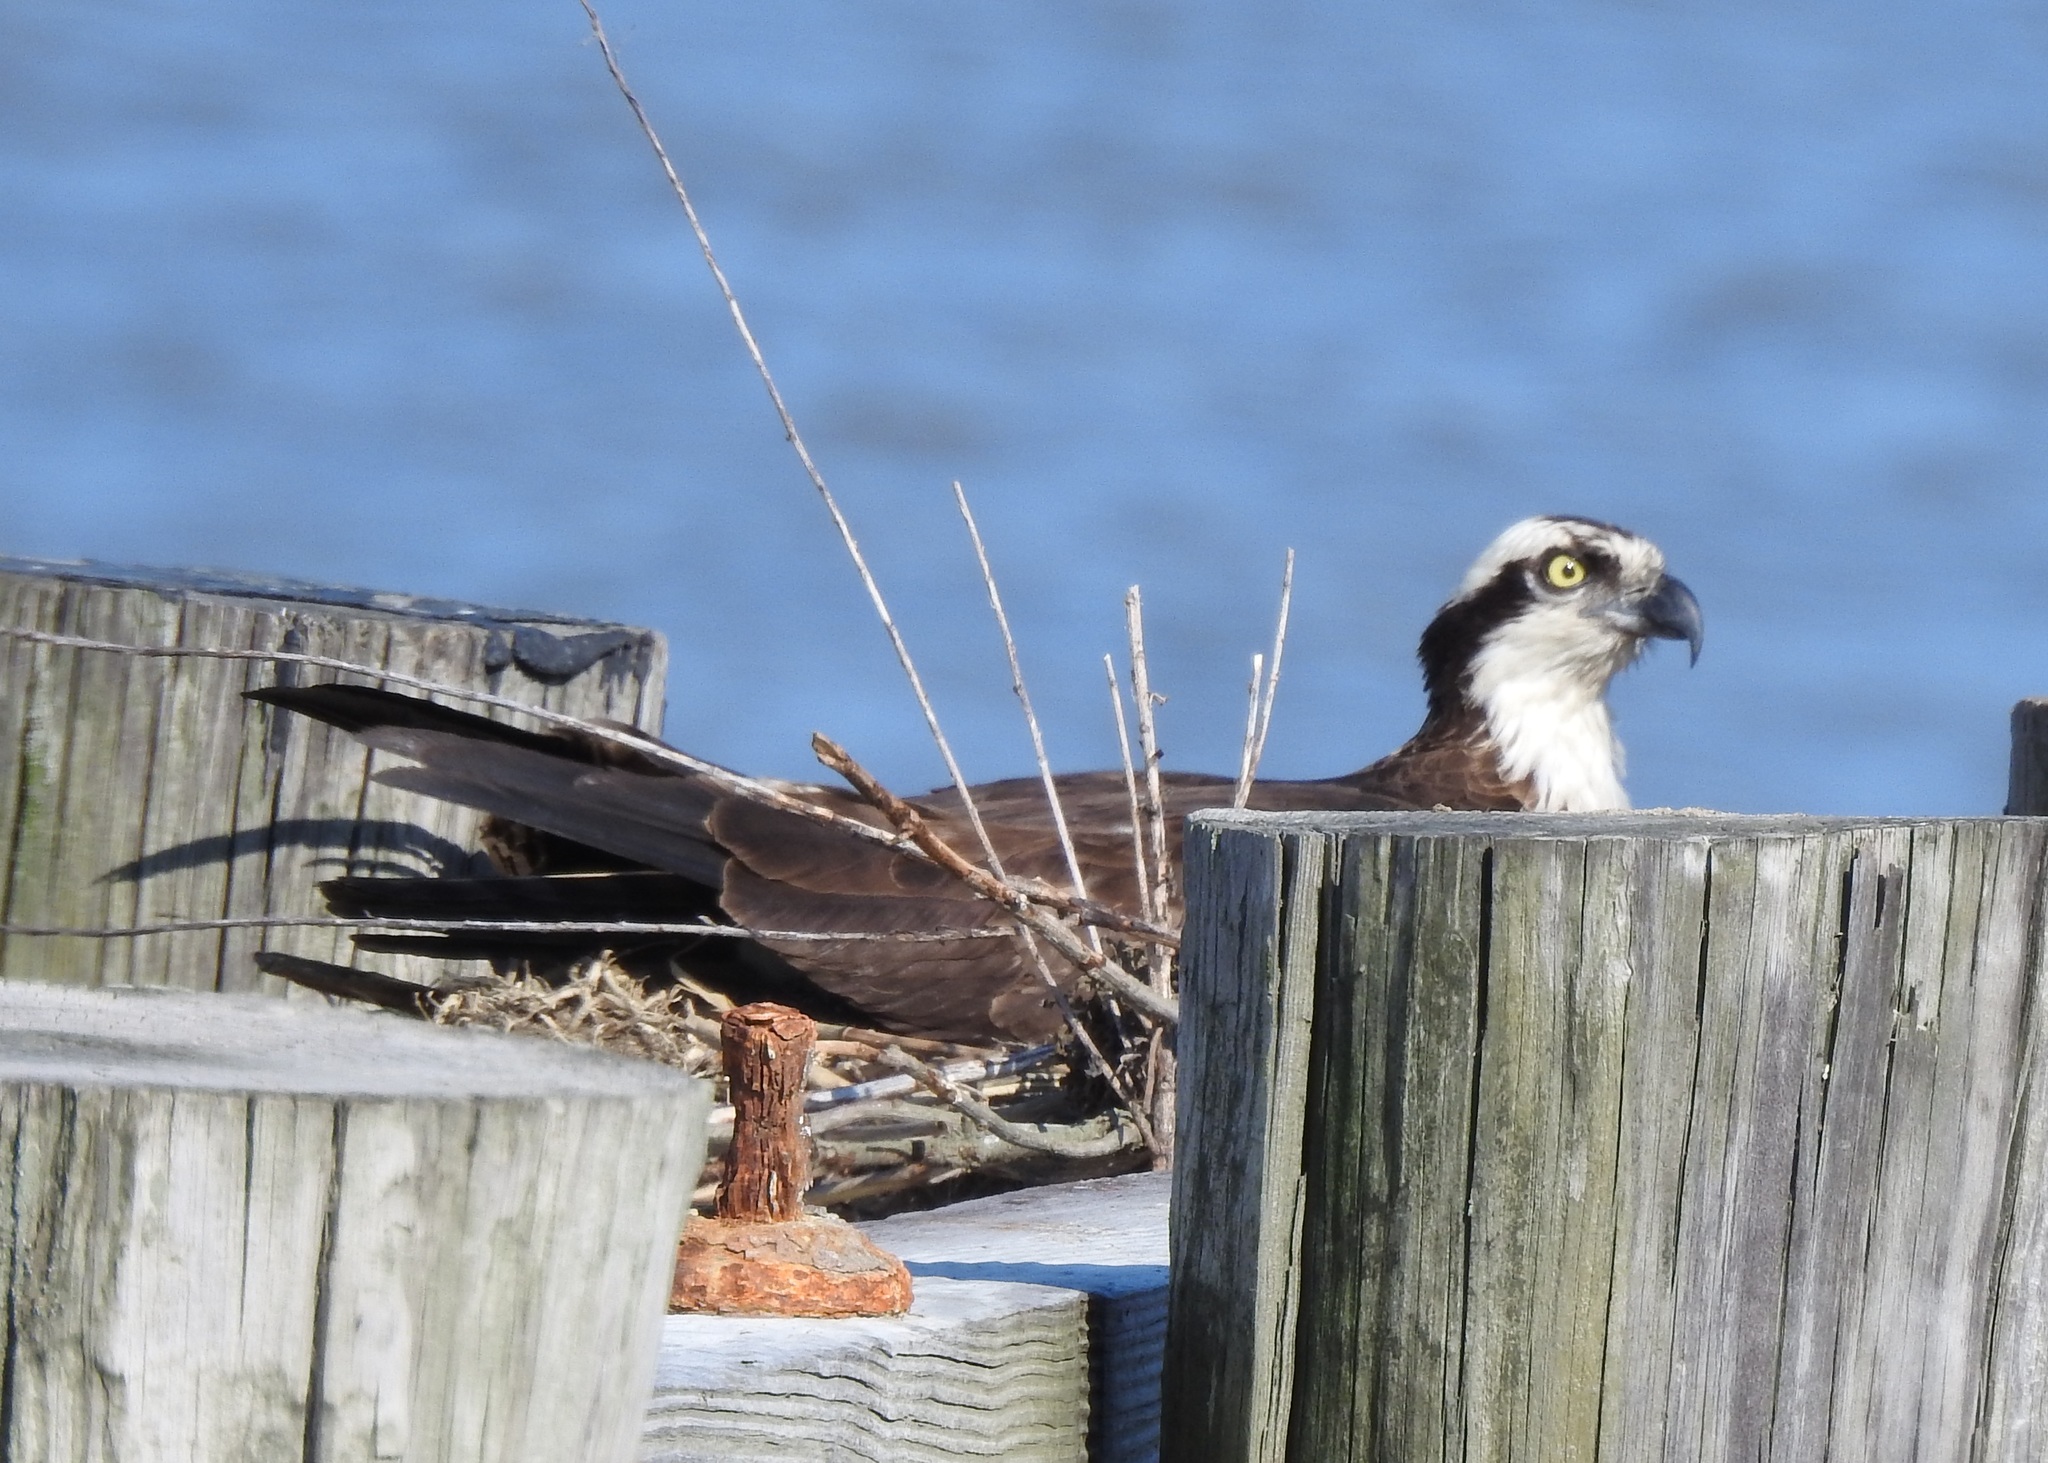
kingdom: Animalia
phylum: Chordata
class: Aves
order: Accipitriformes
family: Pandionidae
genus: Pandion
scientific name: Pandion haliaetus
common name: Osprey
